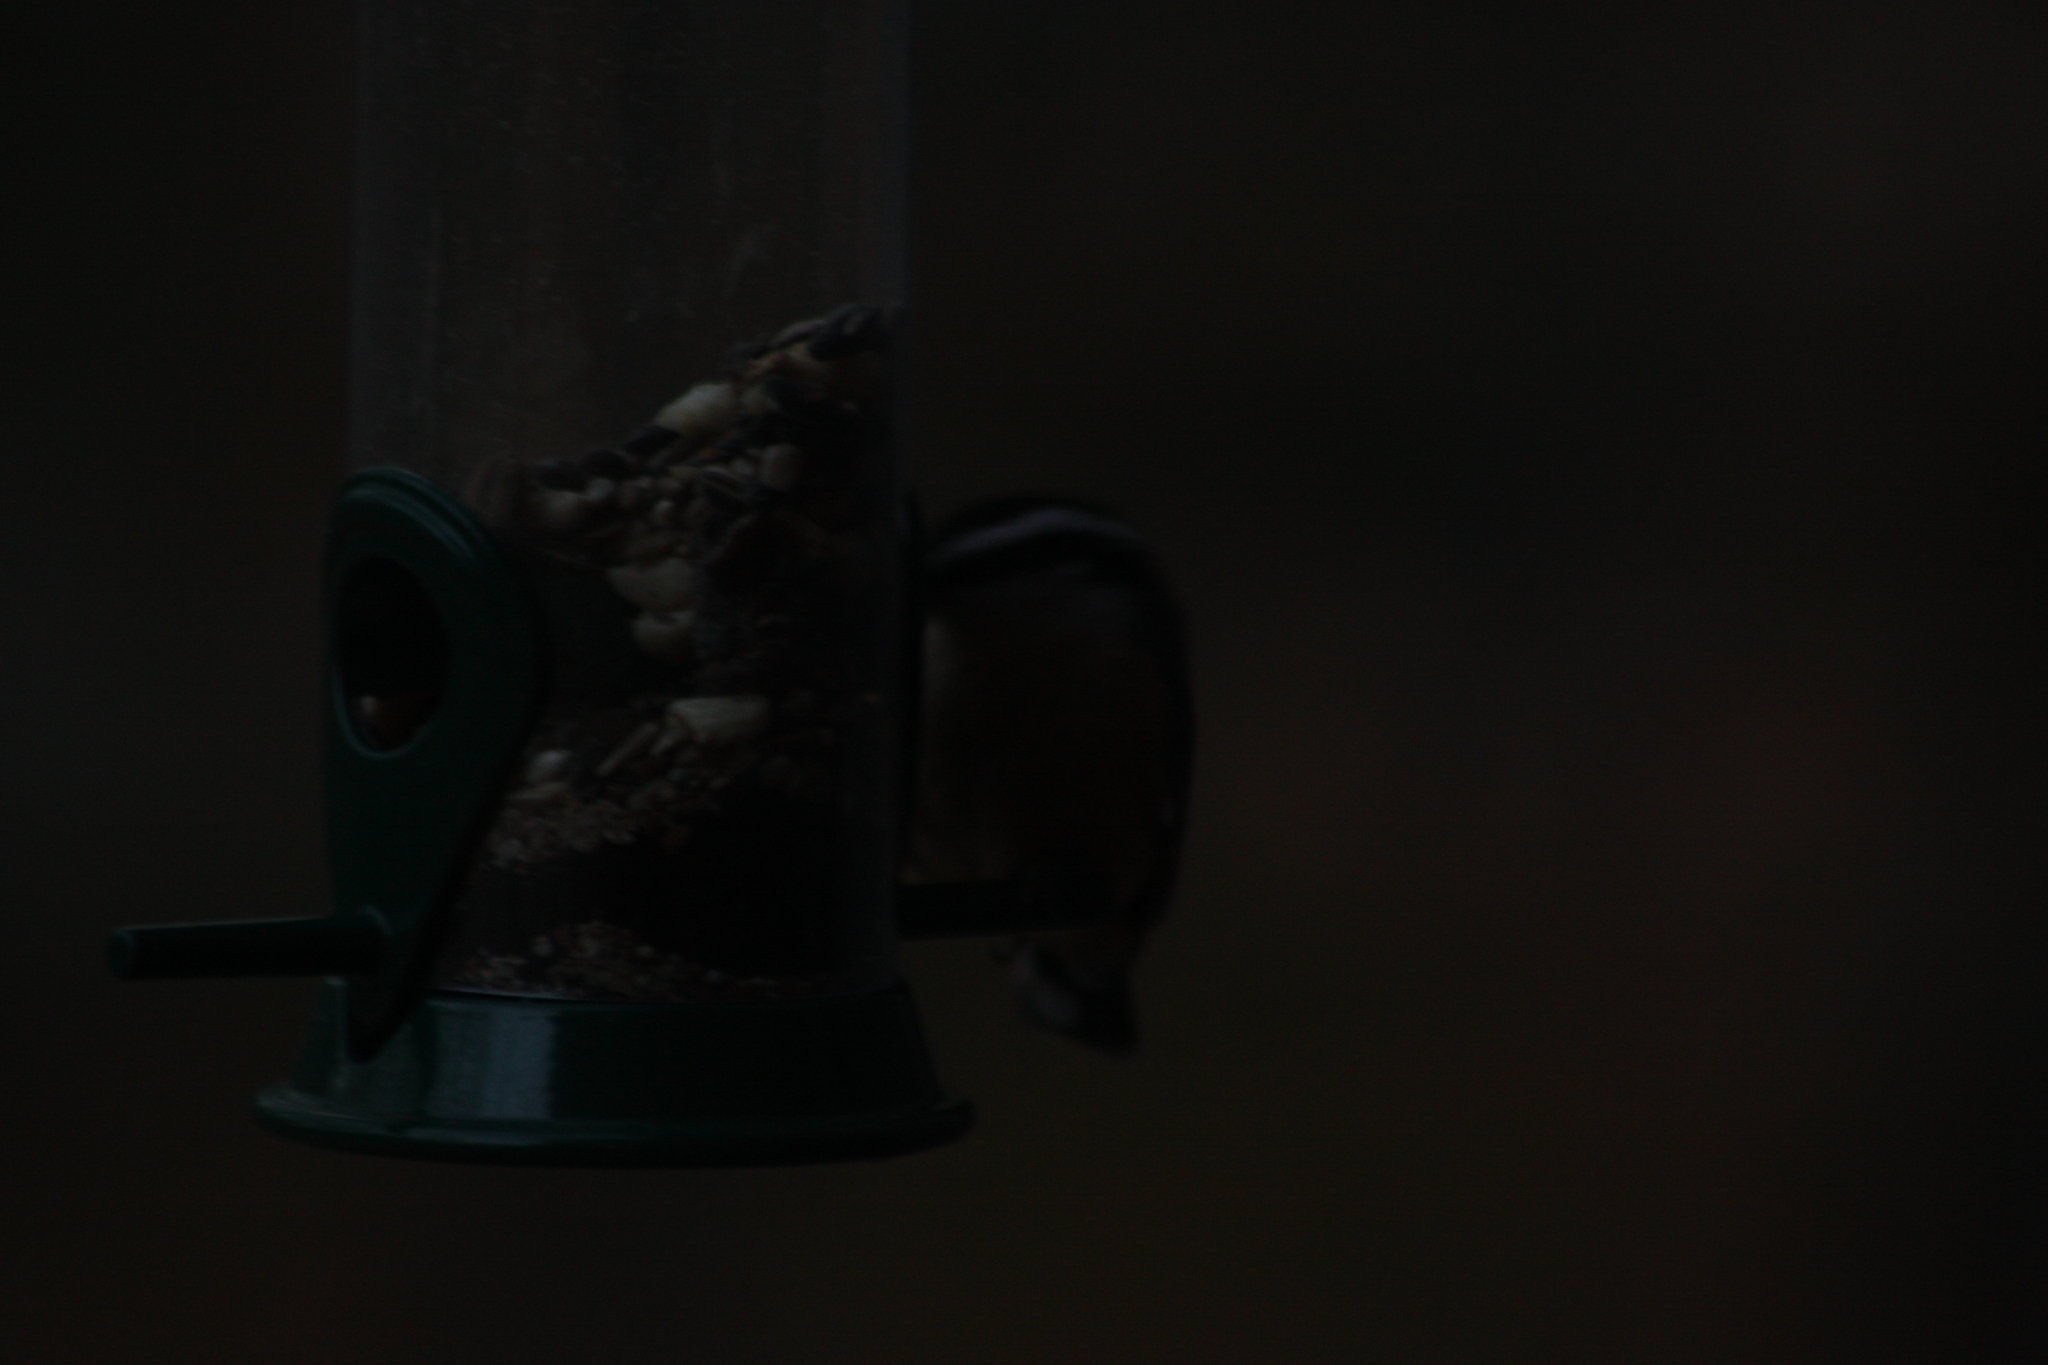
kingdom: Animalia
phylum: Chordata
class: Aves
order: Passeriformes
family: Sittidae
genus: Sitta
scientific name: Sitta canadensis
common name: Red-breasted nuthatch
